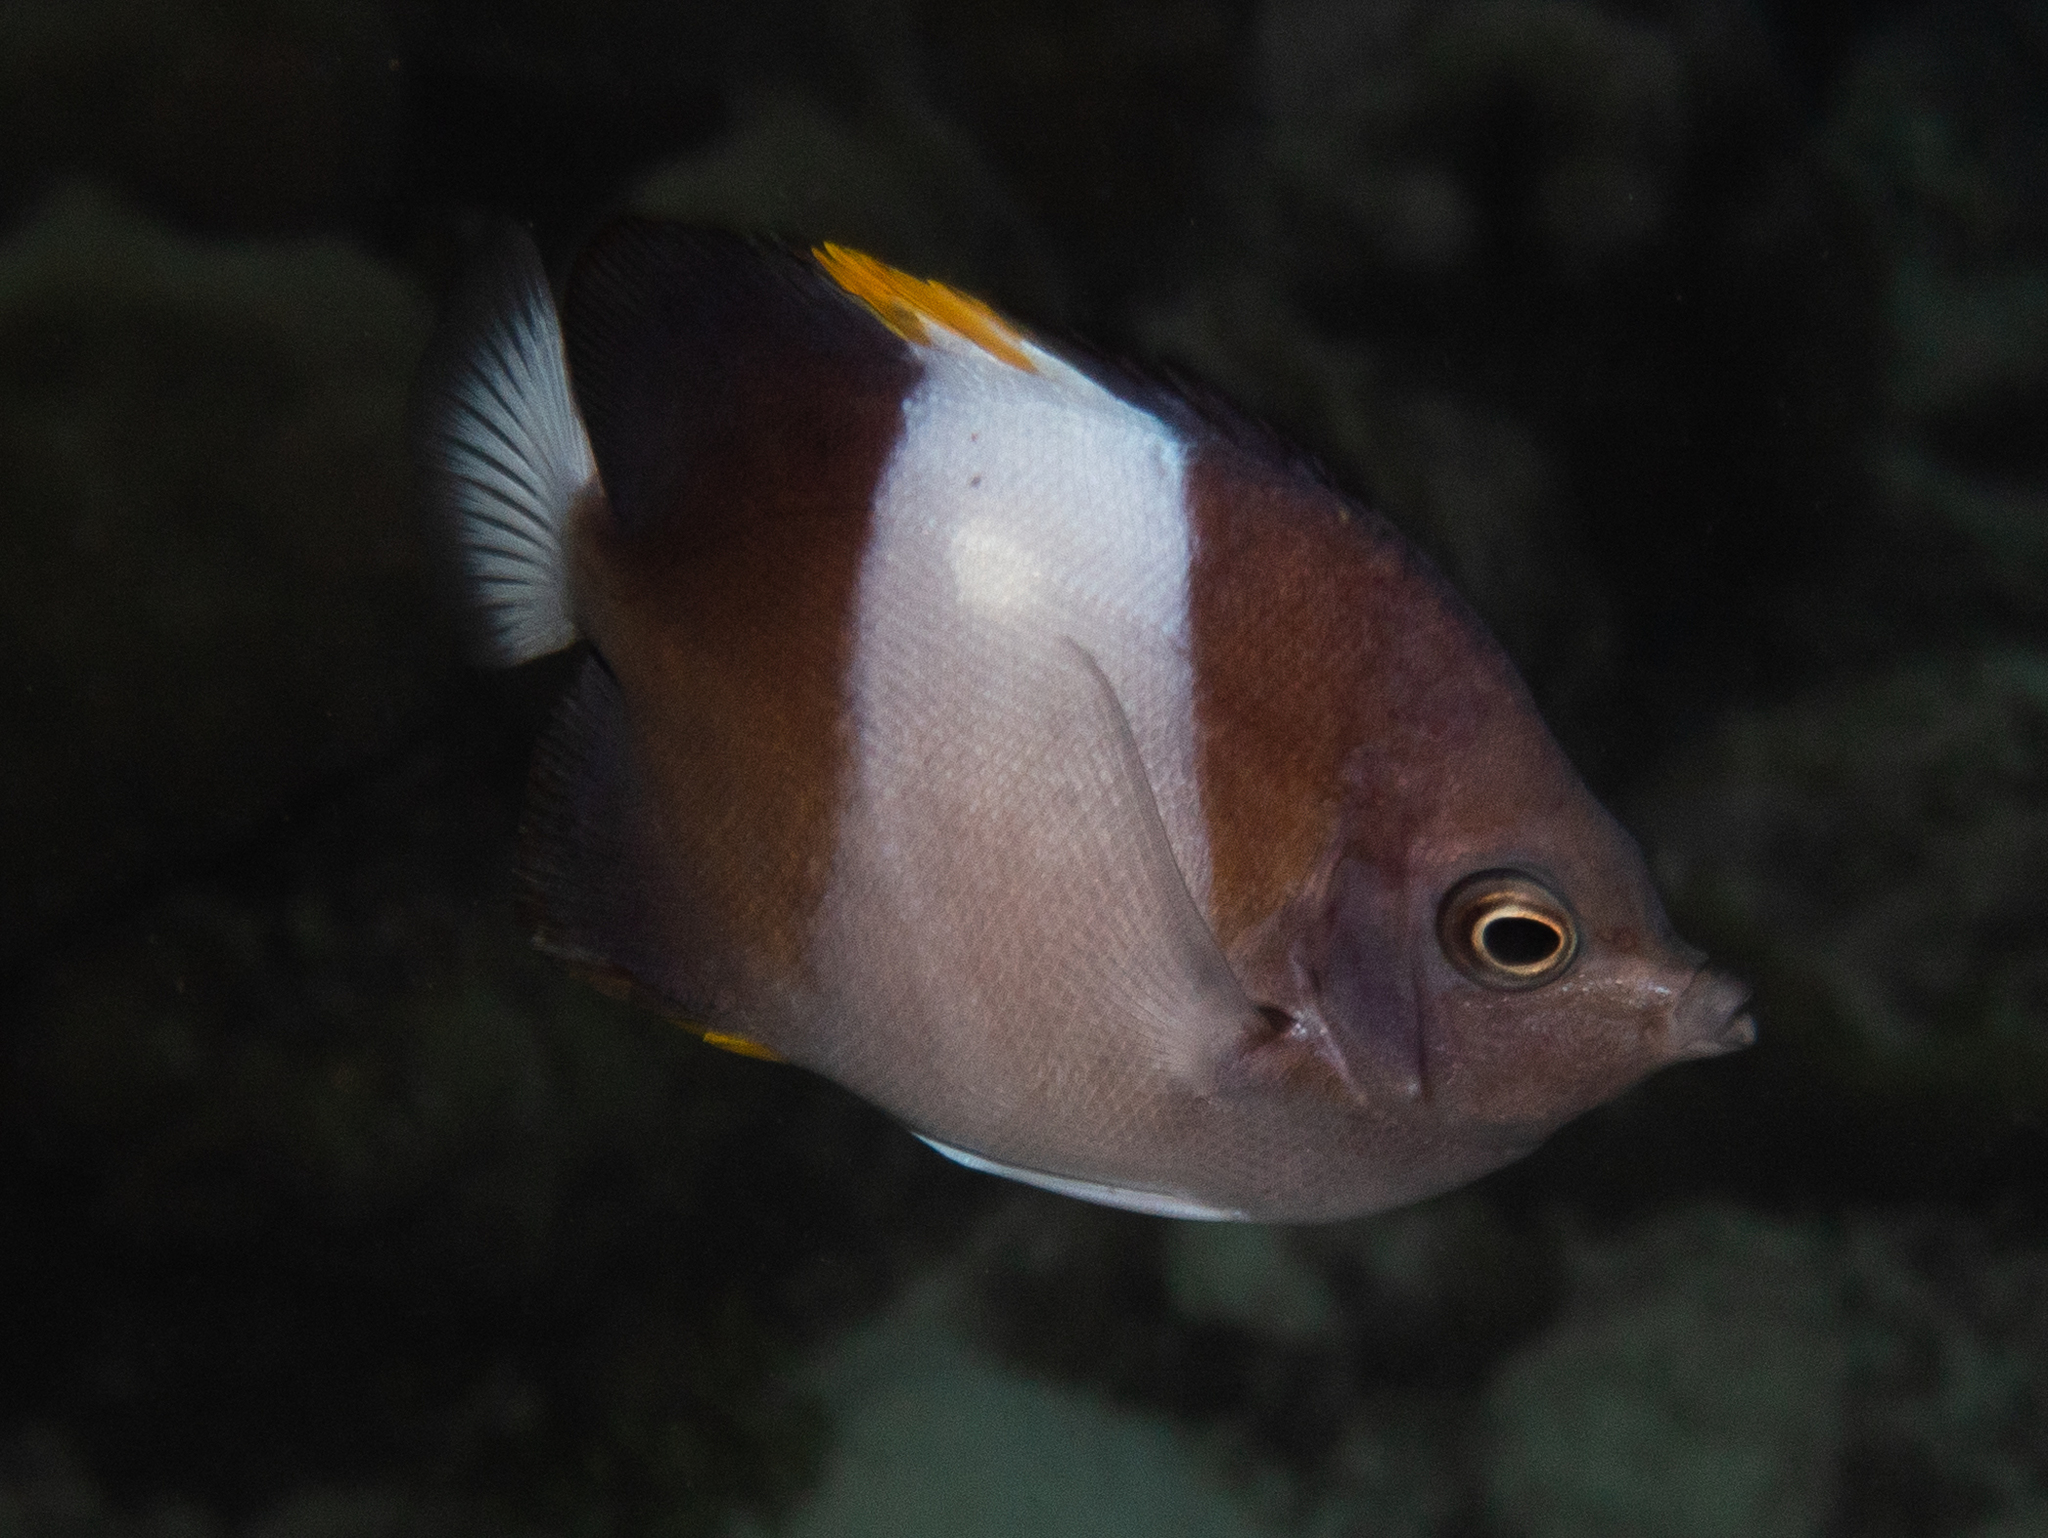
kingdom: Animalia
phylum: Chordata
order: Perciformes
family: Chaetodontidae
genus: Hemitaurichthys
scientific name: Hemitaurichthys zoster
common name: Brown-and-white butterflyfish
